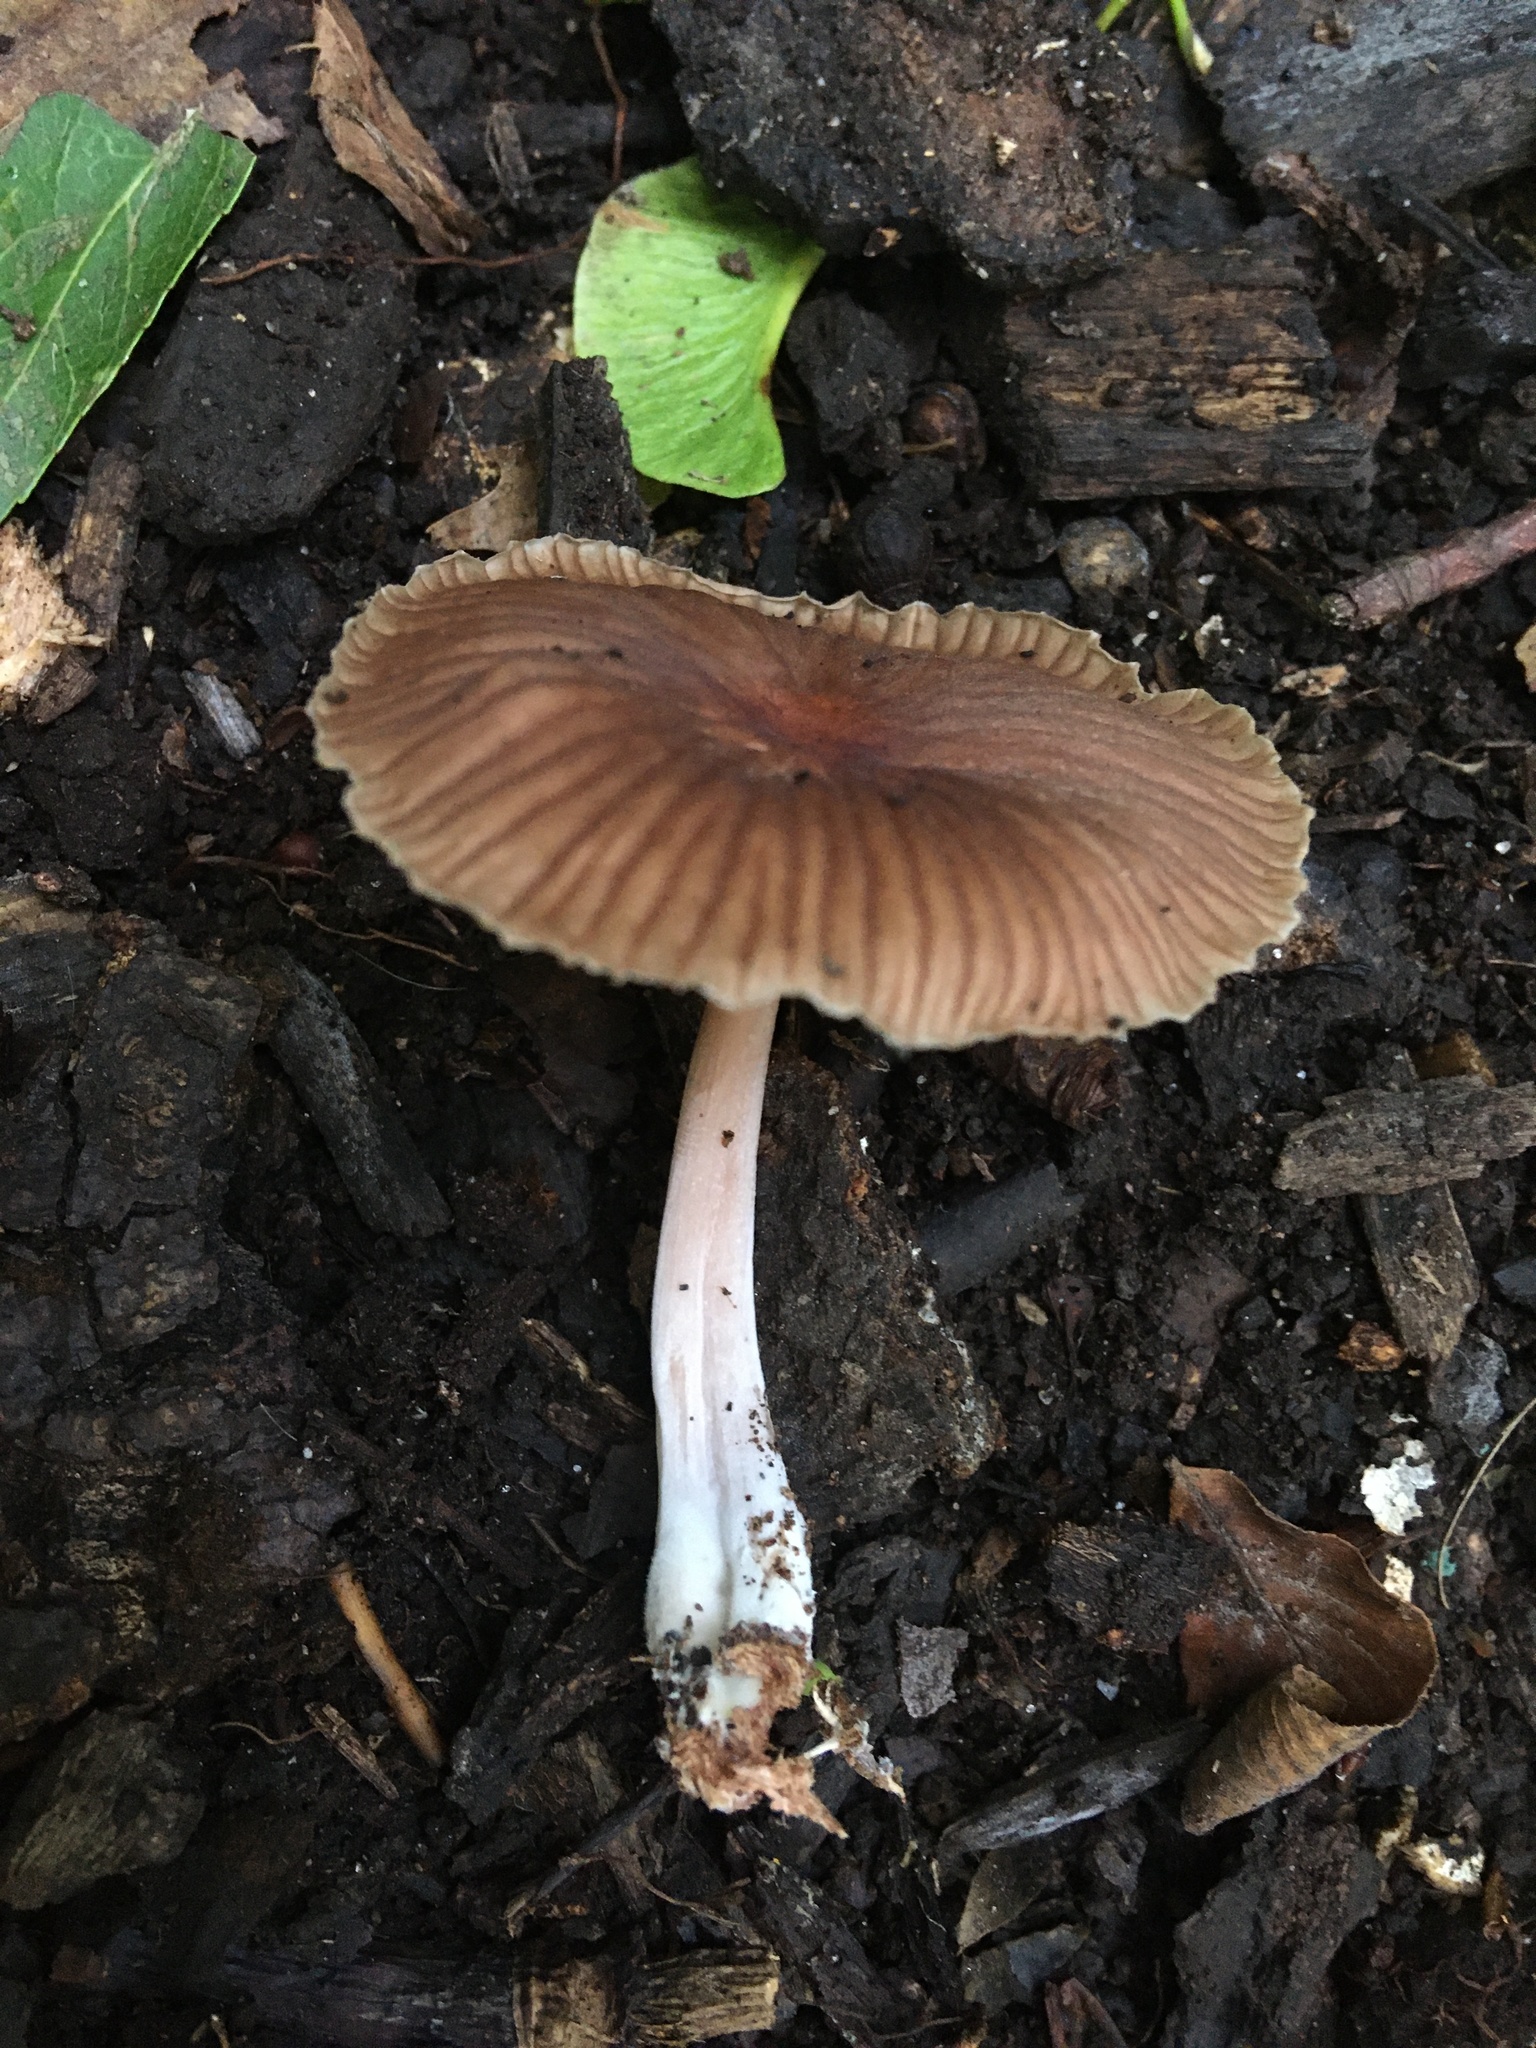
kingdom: Fungi
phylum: Basidiomycota
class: Agaricomycetes
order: Agaricales
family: Omphalotaceae
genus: Gymnopus
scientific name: Gymnopus dysodes
